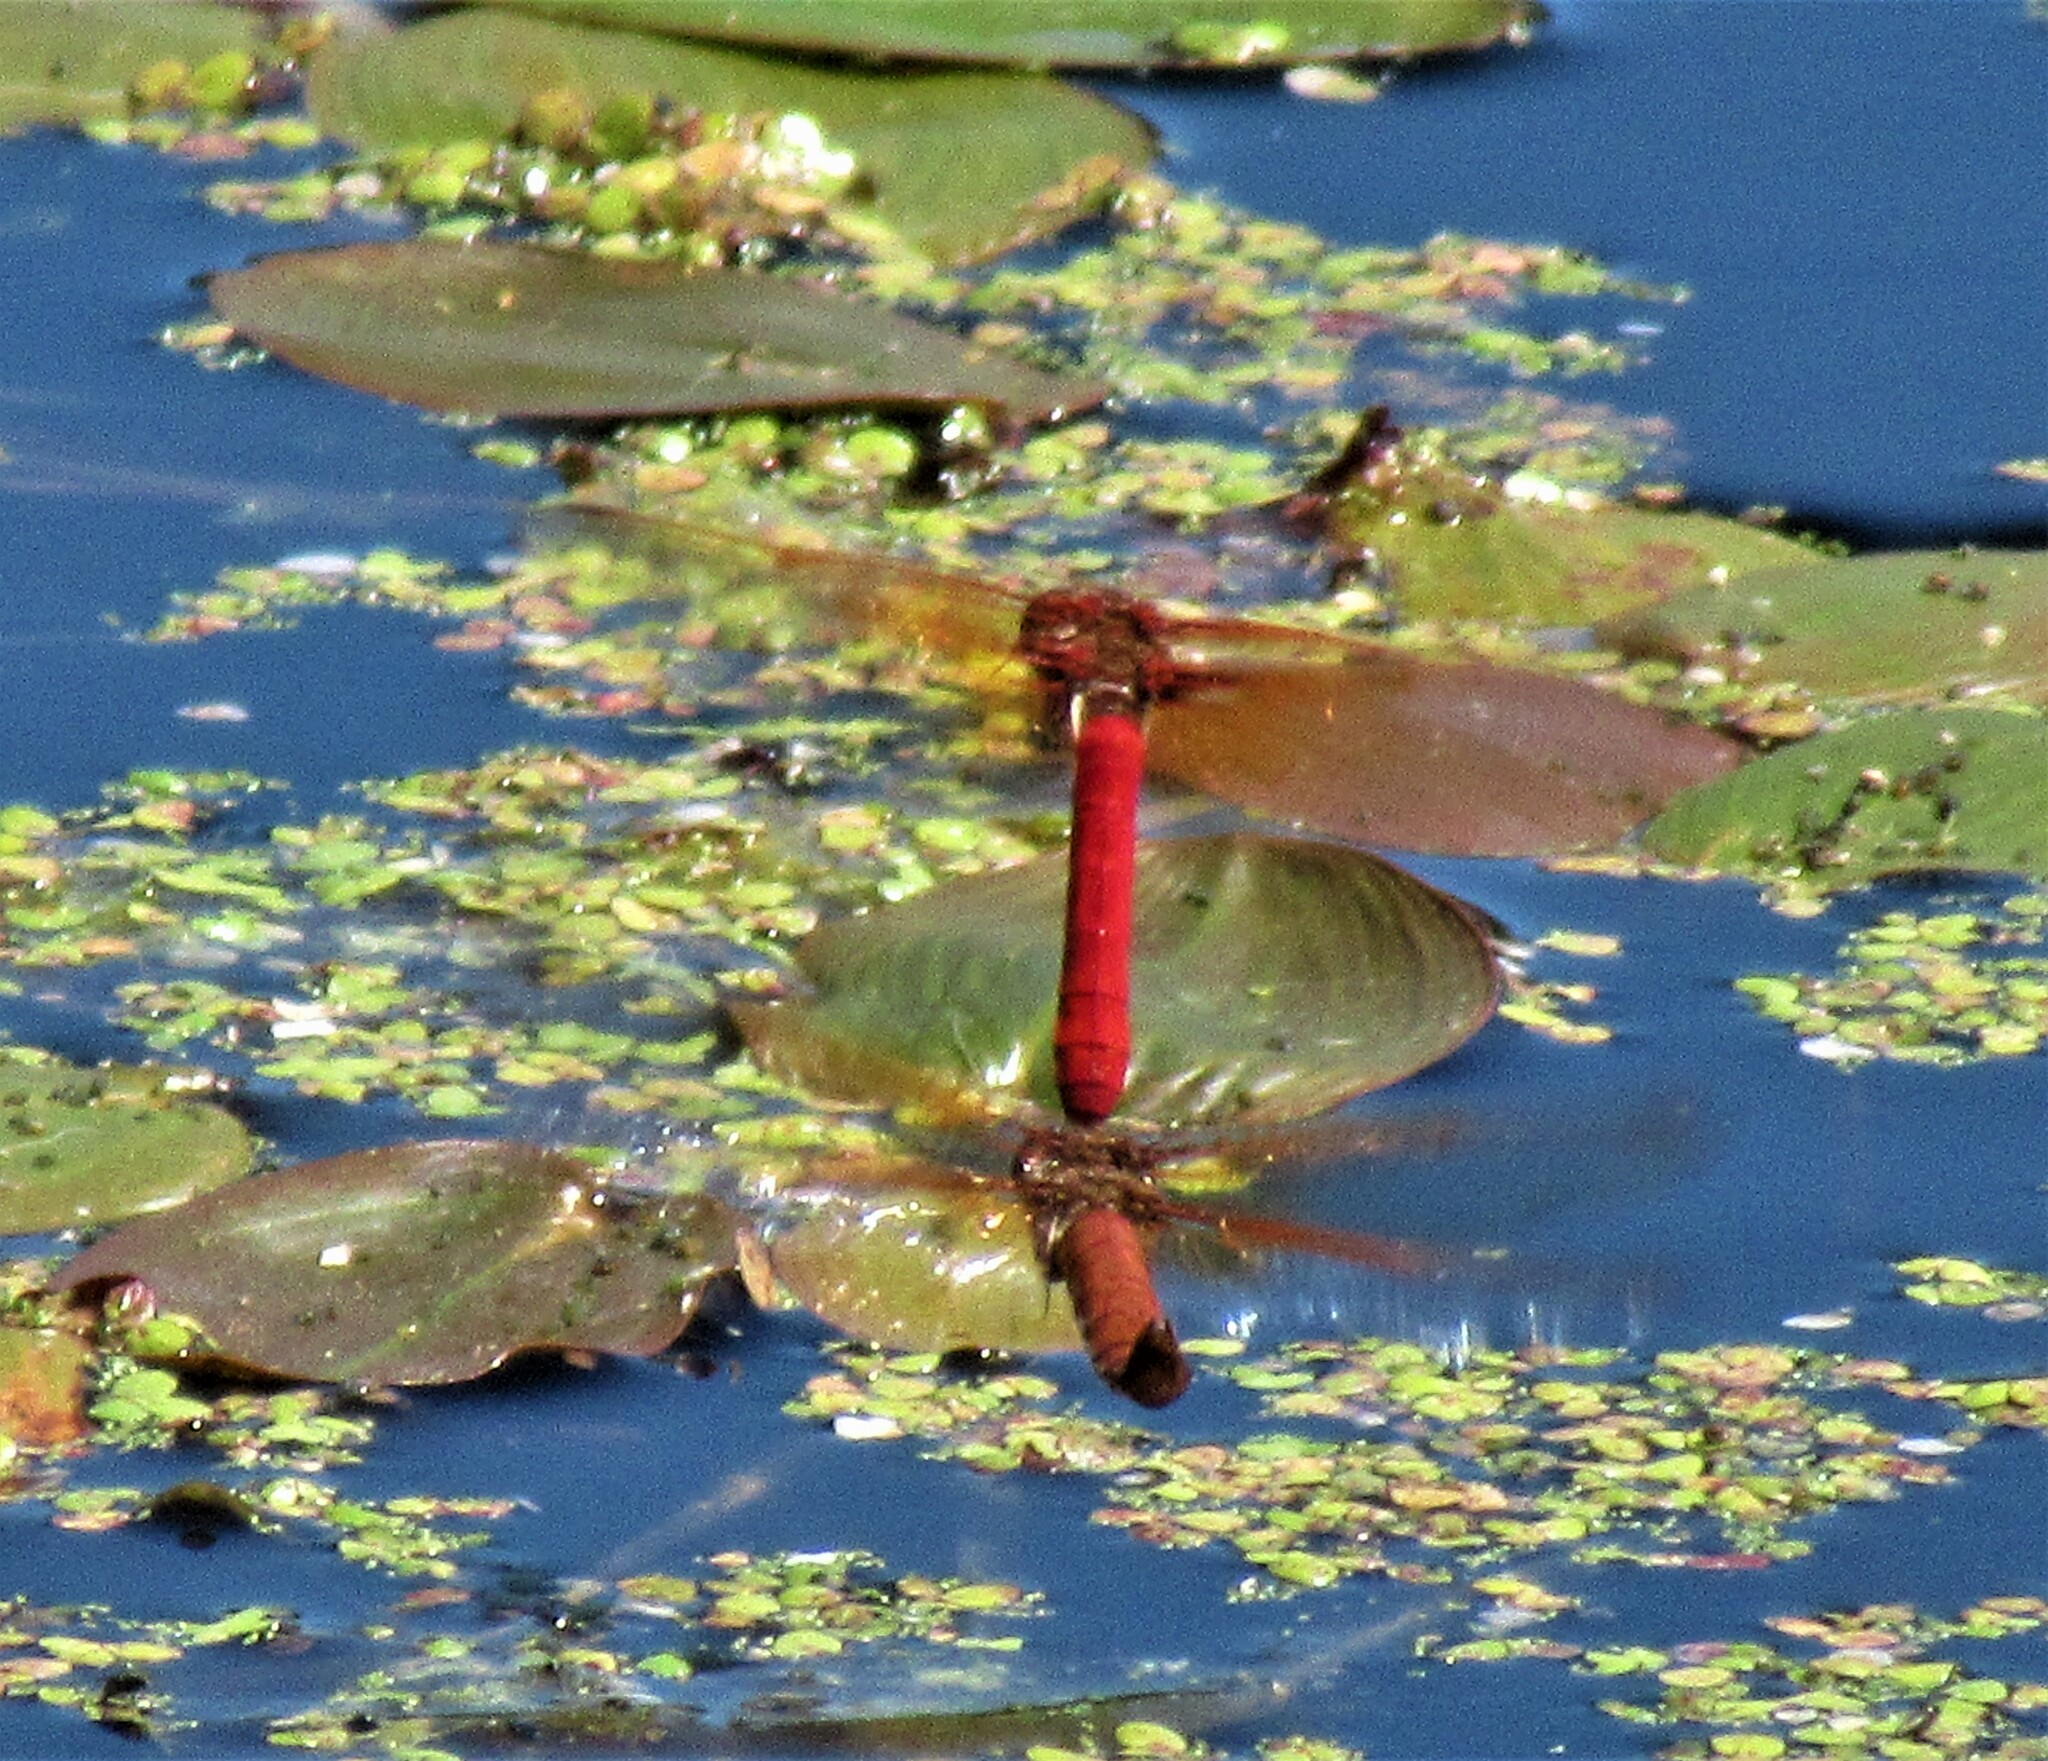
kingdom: Animalia
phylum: Arthropoda
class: Insecta
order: Odonata
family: Libellulidae
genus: Sympetrum
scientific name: Sympetrum illotum
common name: Cardinal meadowhawk
